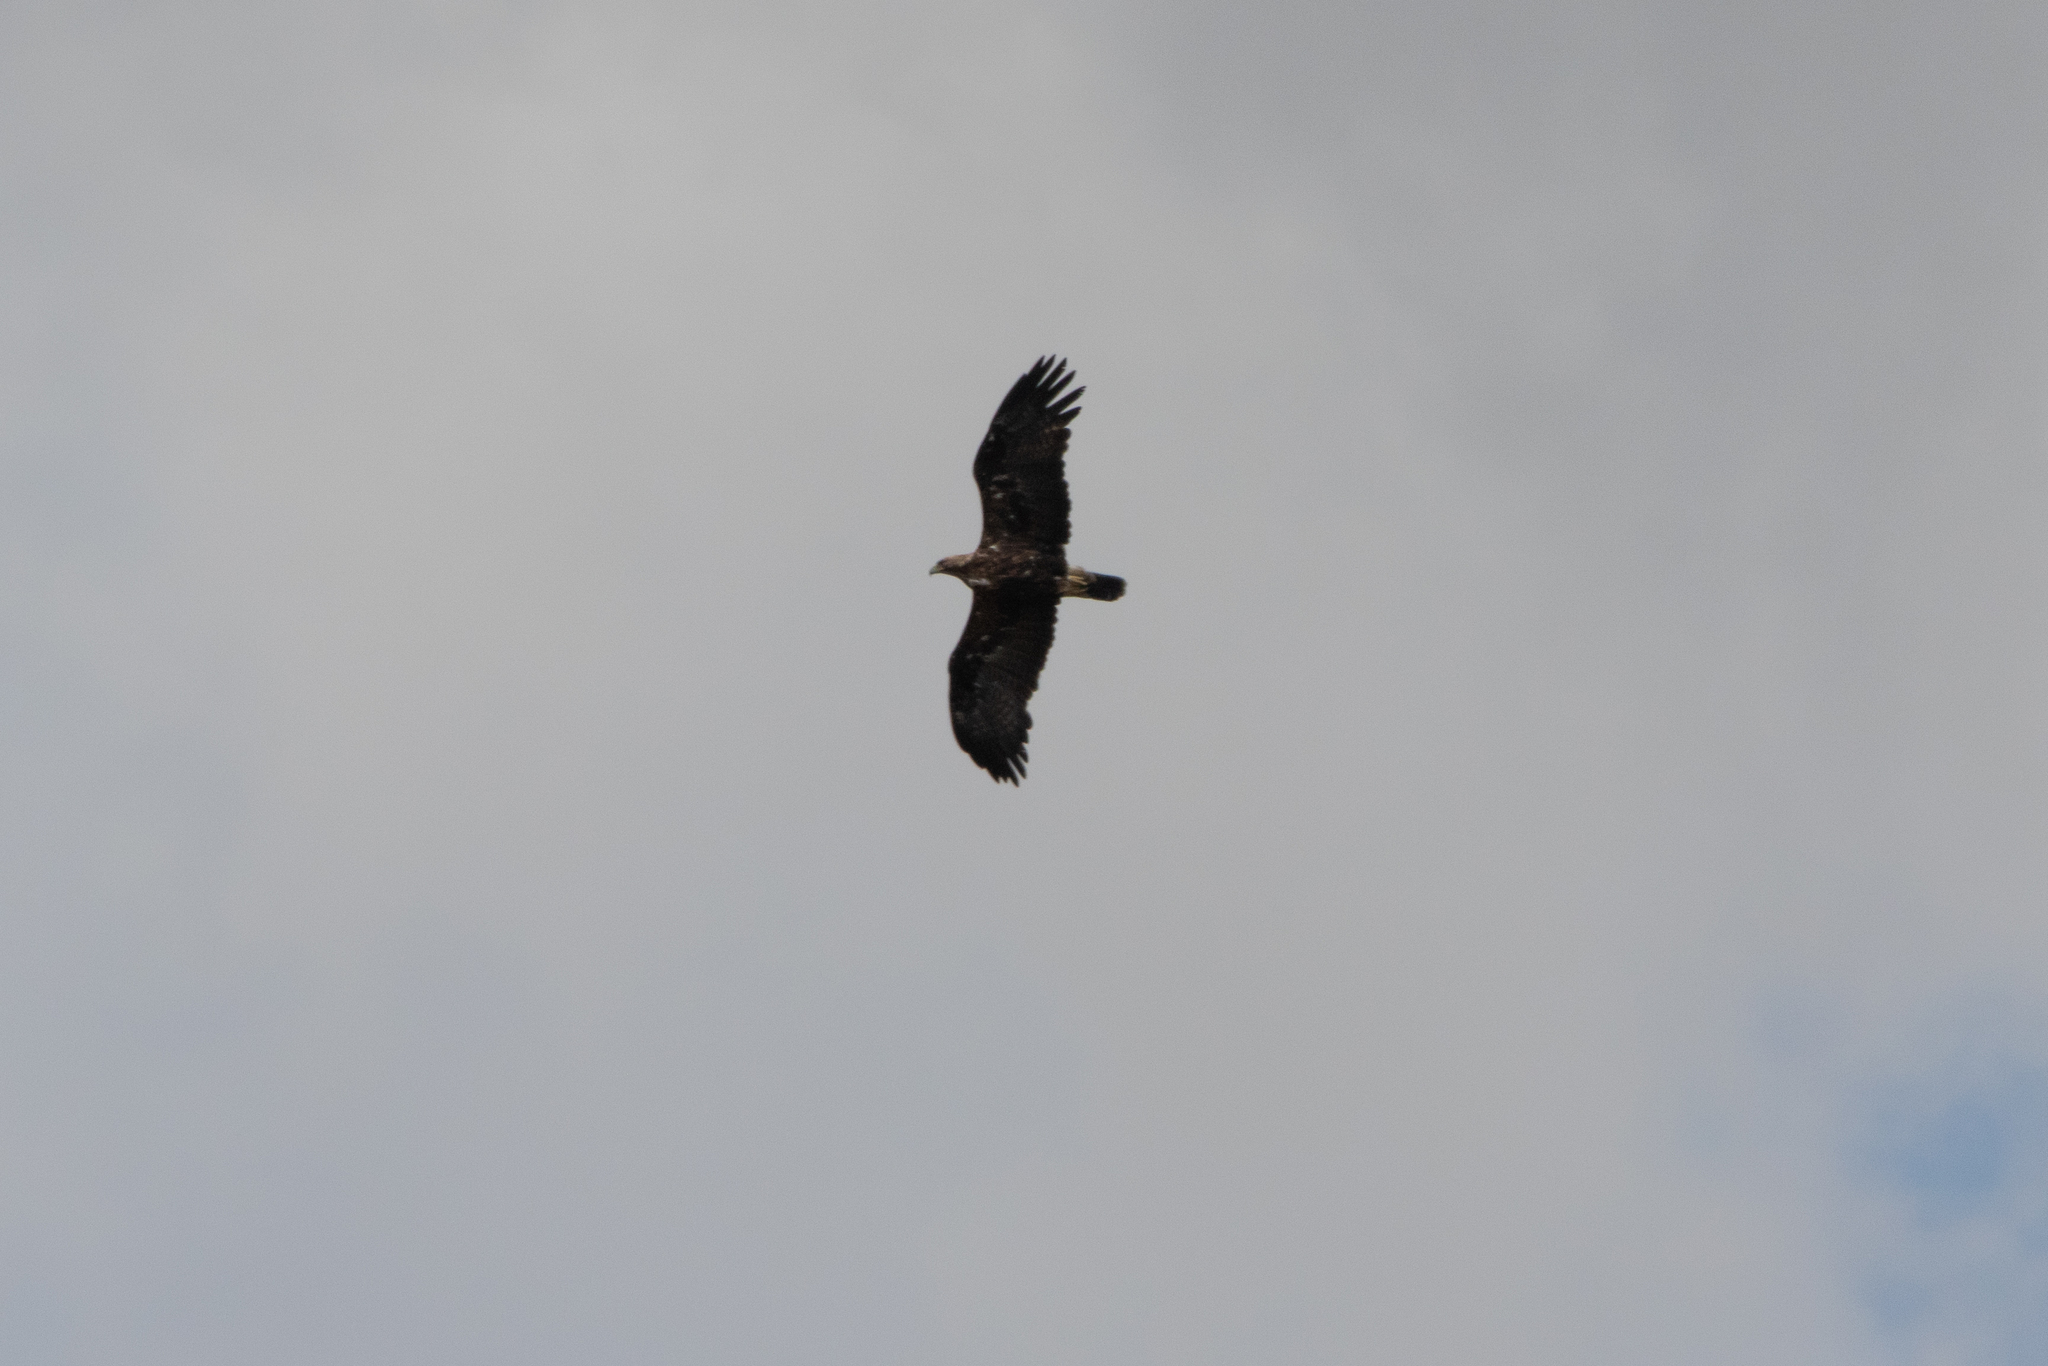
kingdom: Animalia
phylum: Chordata
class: Aves
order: Accipitriformes
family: Accipitridae
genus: Aquila
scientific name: Aquila heliaca
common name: Eastern imperial eagle
